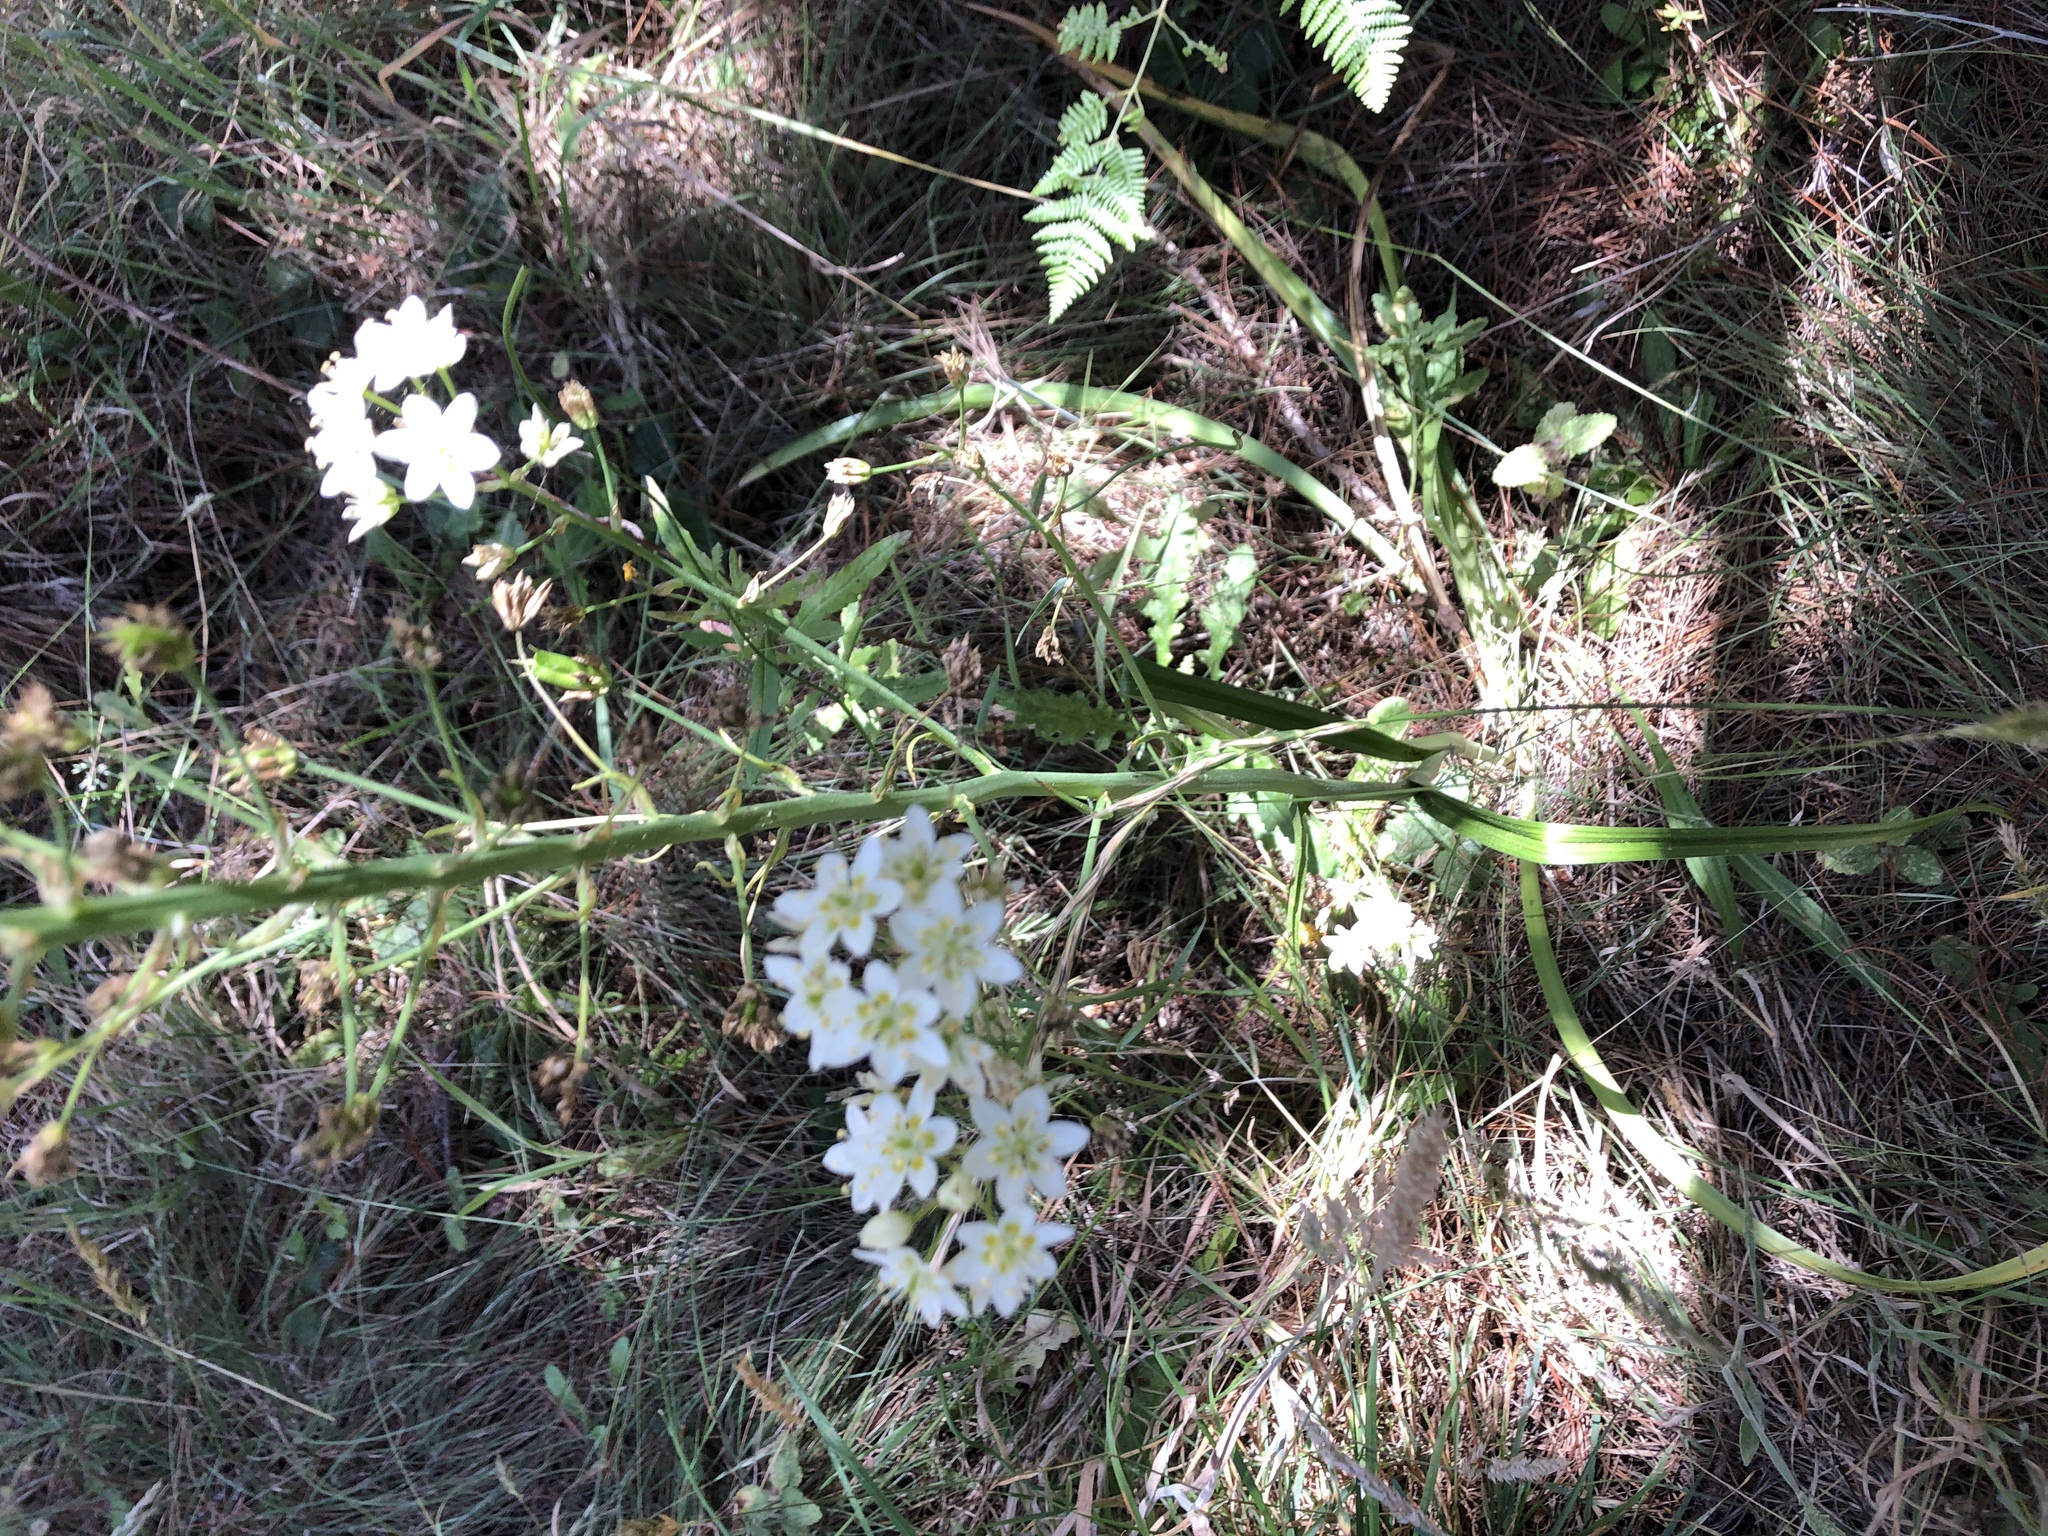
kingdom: Plantae
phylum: Tracheophyta
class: Liliopsida
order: Liliales
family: Melanthiaceae
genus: Toxicoscordion
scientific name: Toxicoscordion fremontii
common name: Fremont's death camas
